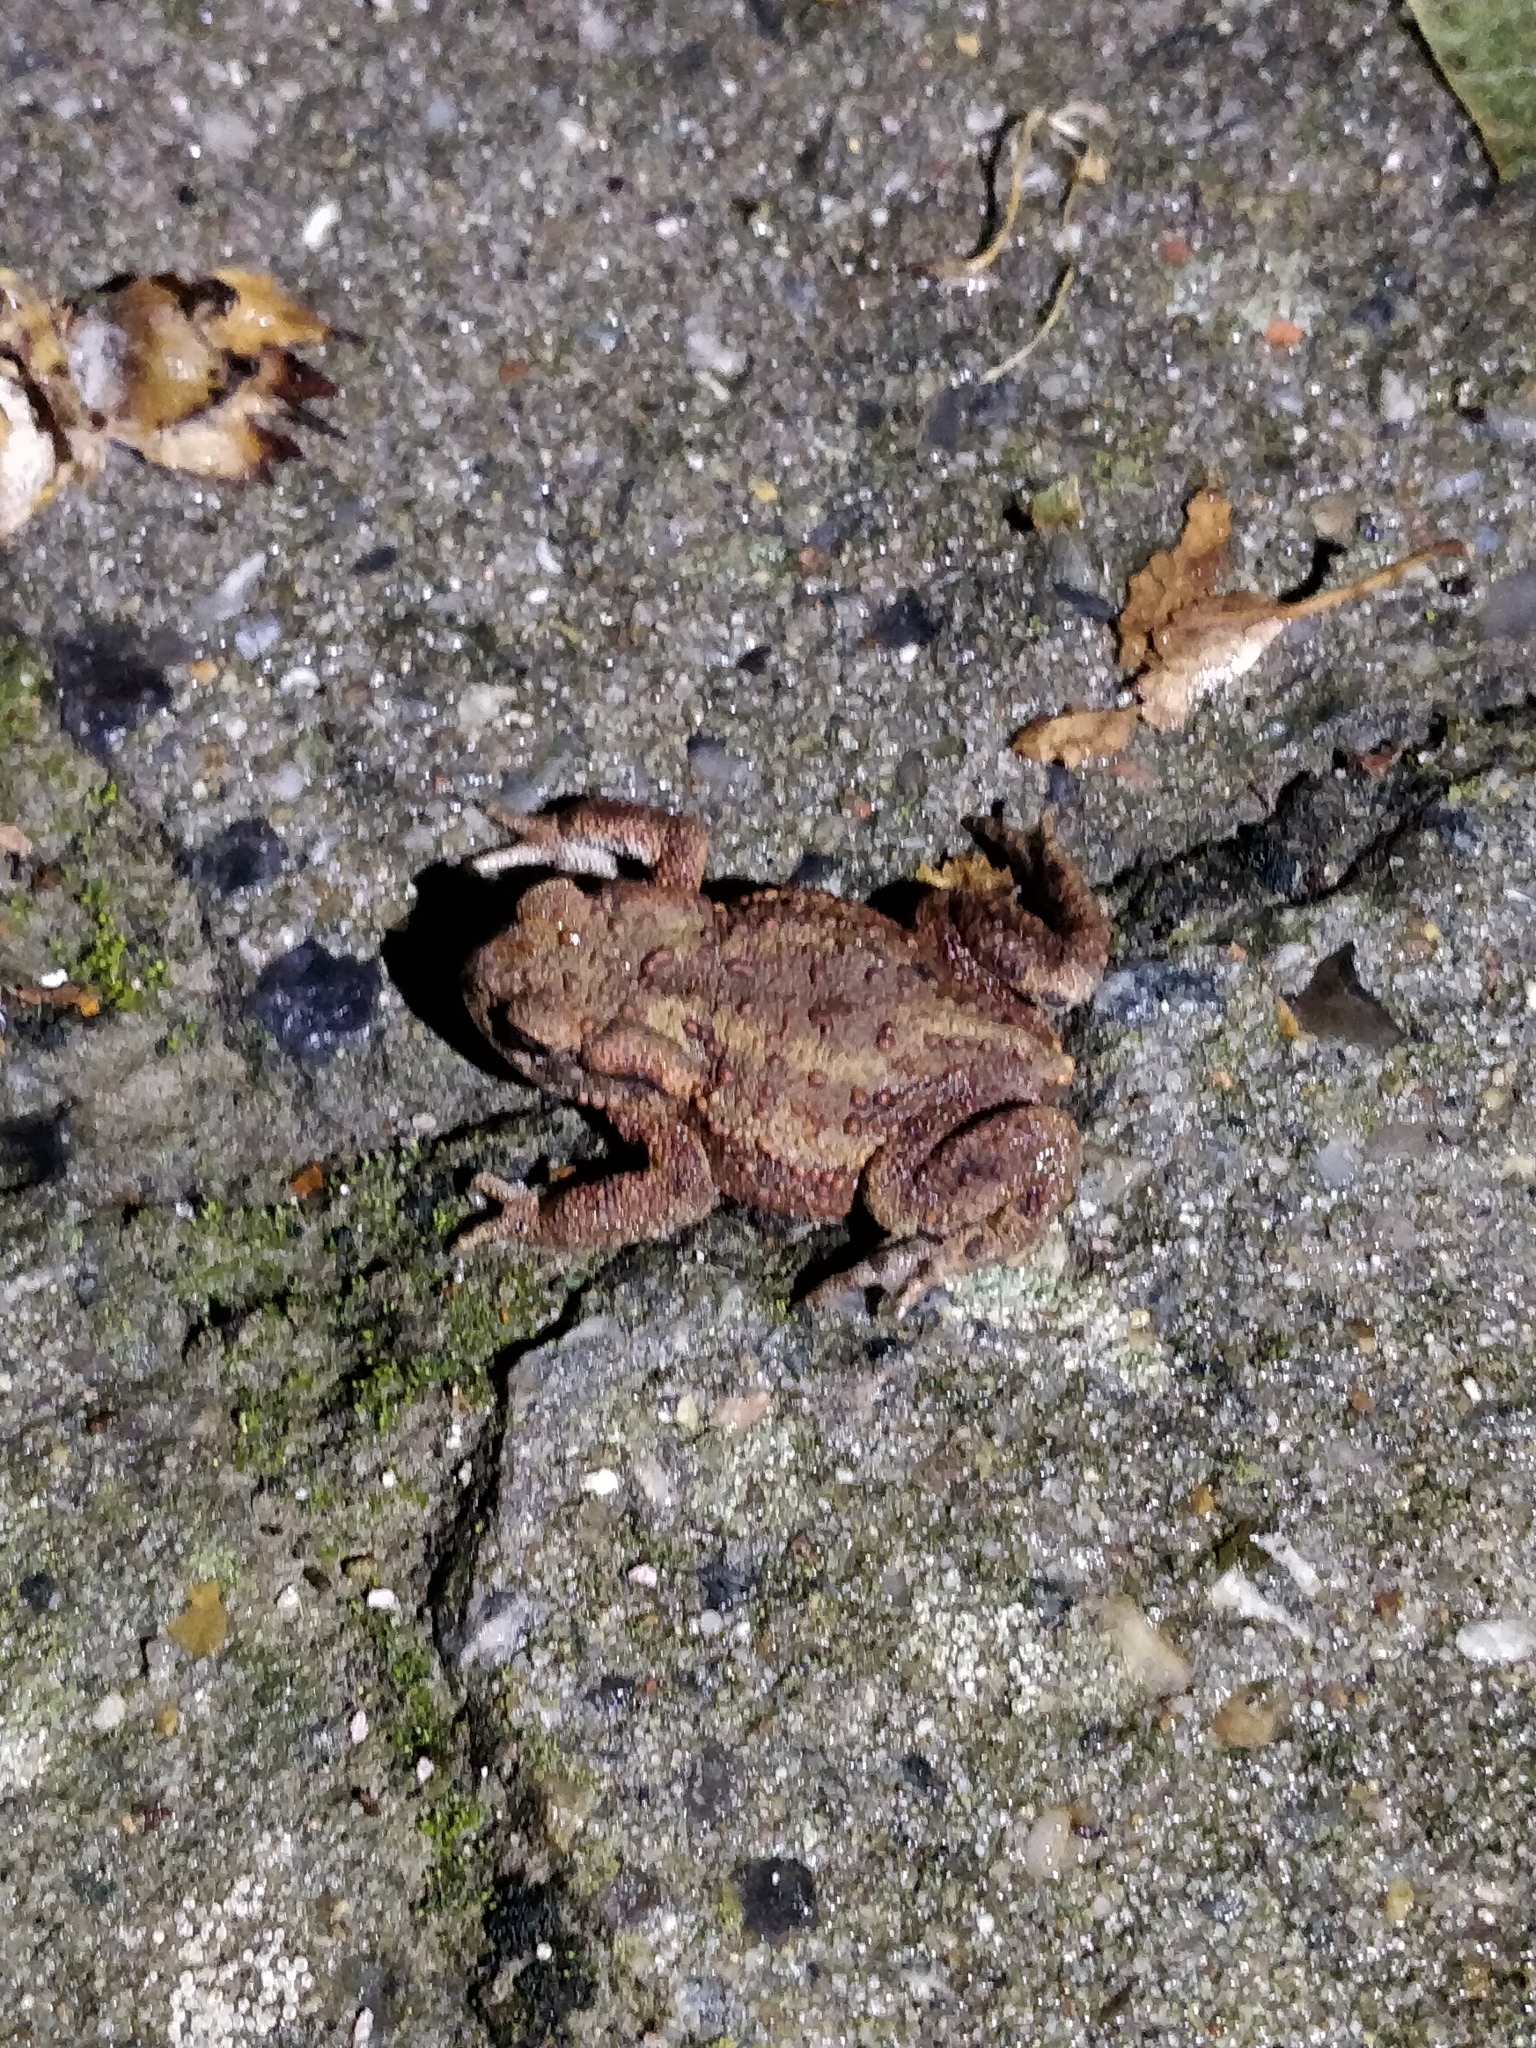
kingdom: Animalia
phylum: Chordata
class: Amphibia
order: Anura
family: Bufonidae
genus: Bufo
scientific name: Bufo bufo
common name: Common toad
